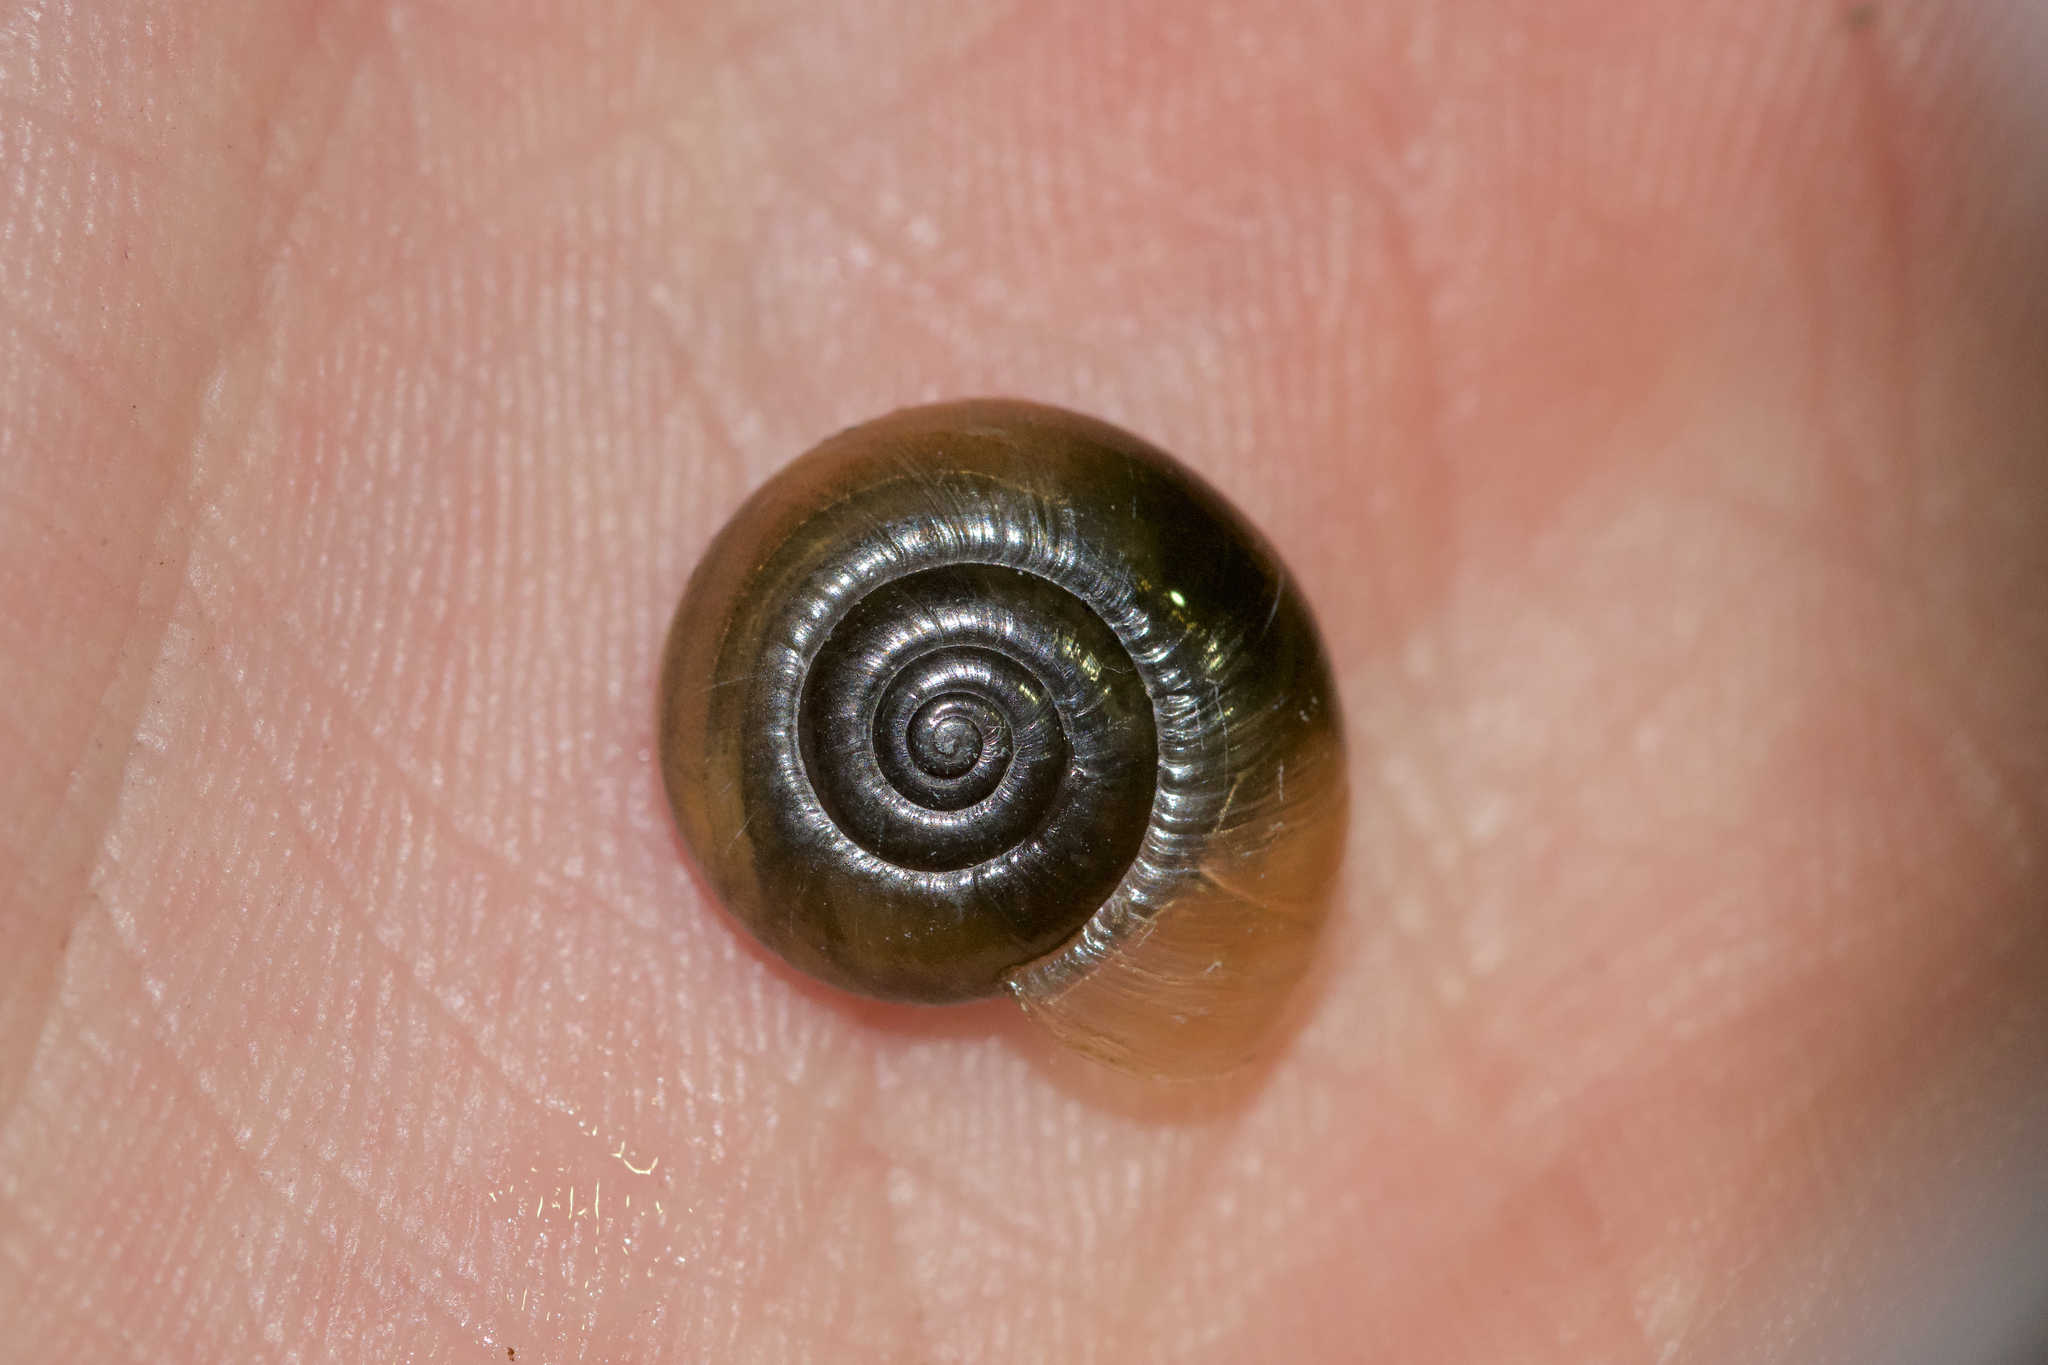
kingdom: Animalia
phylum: Mollusca
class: Gastropoda
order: Stylommatophora
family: Oxychilidae
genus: Oxychilus
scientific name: Oxychilus draparnaudi
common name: Draparnaud's glass snail
